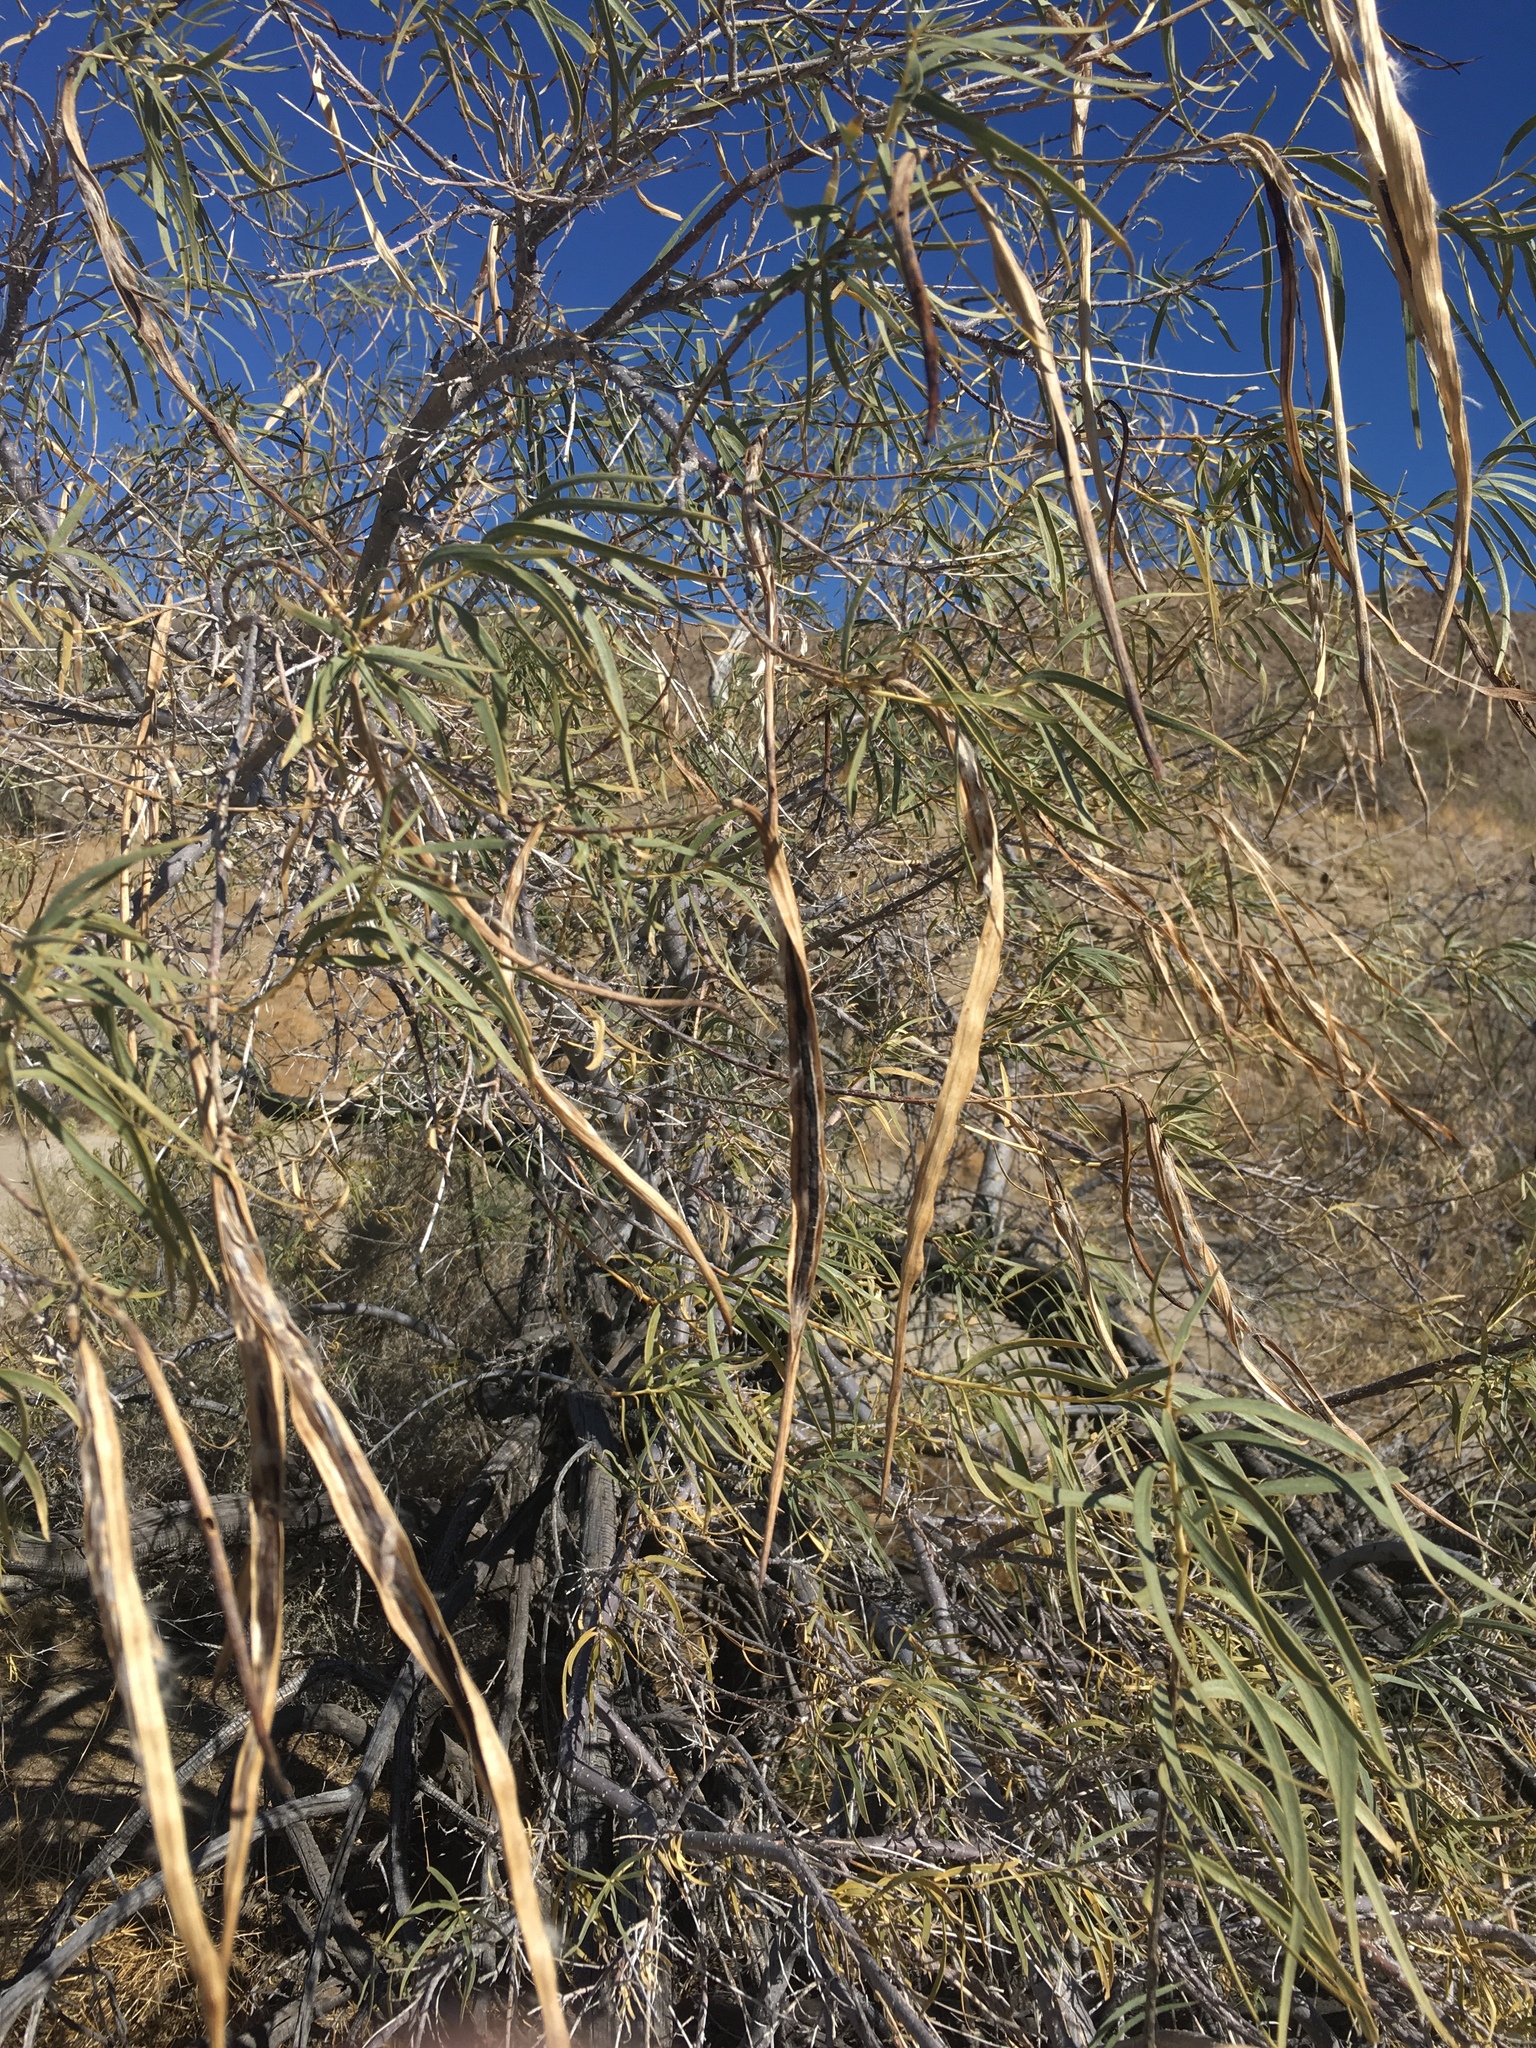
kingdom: Plantae
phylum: Tracheophyta
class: Magnoliopsida
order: Lamiales
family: Bignoniaceae
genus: Chilopsis
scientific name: Chilopsis linearis
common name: Desert-willow
